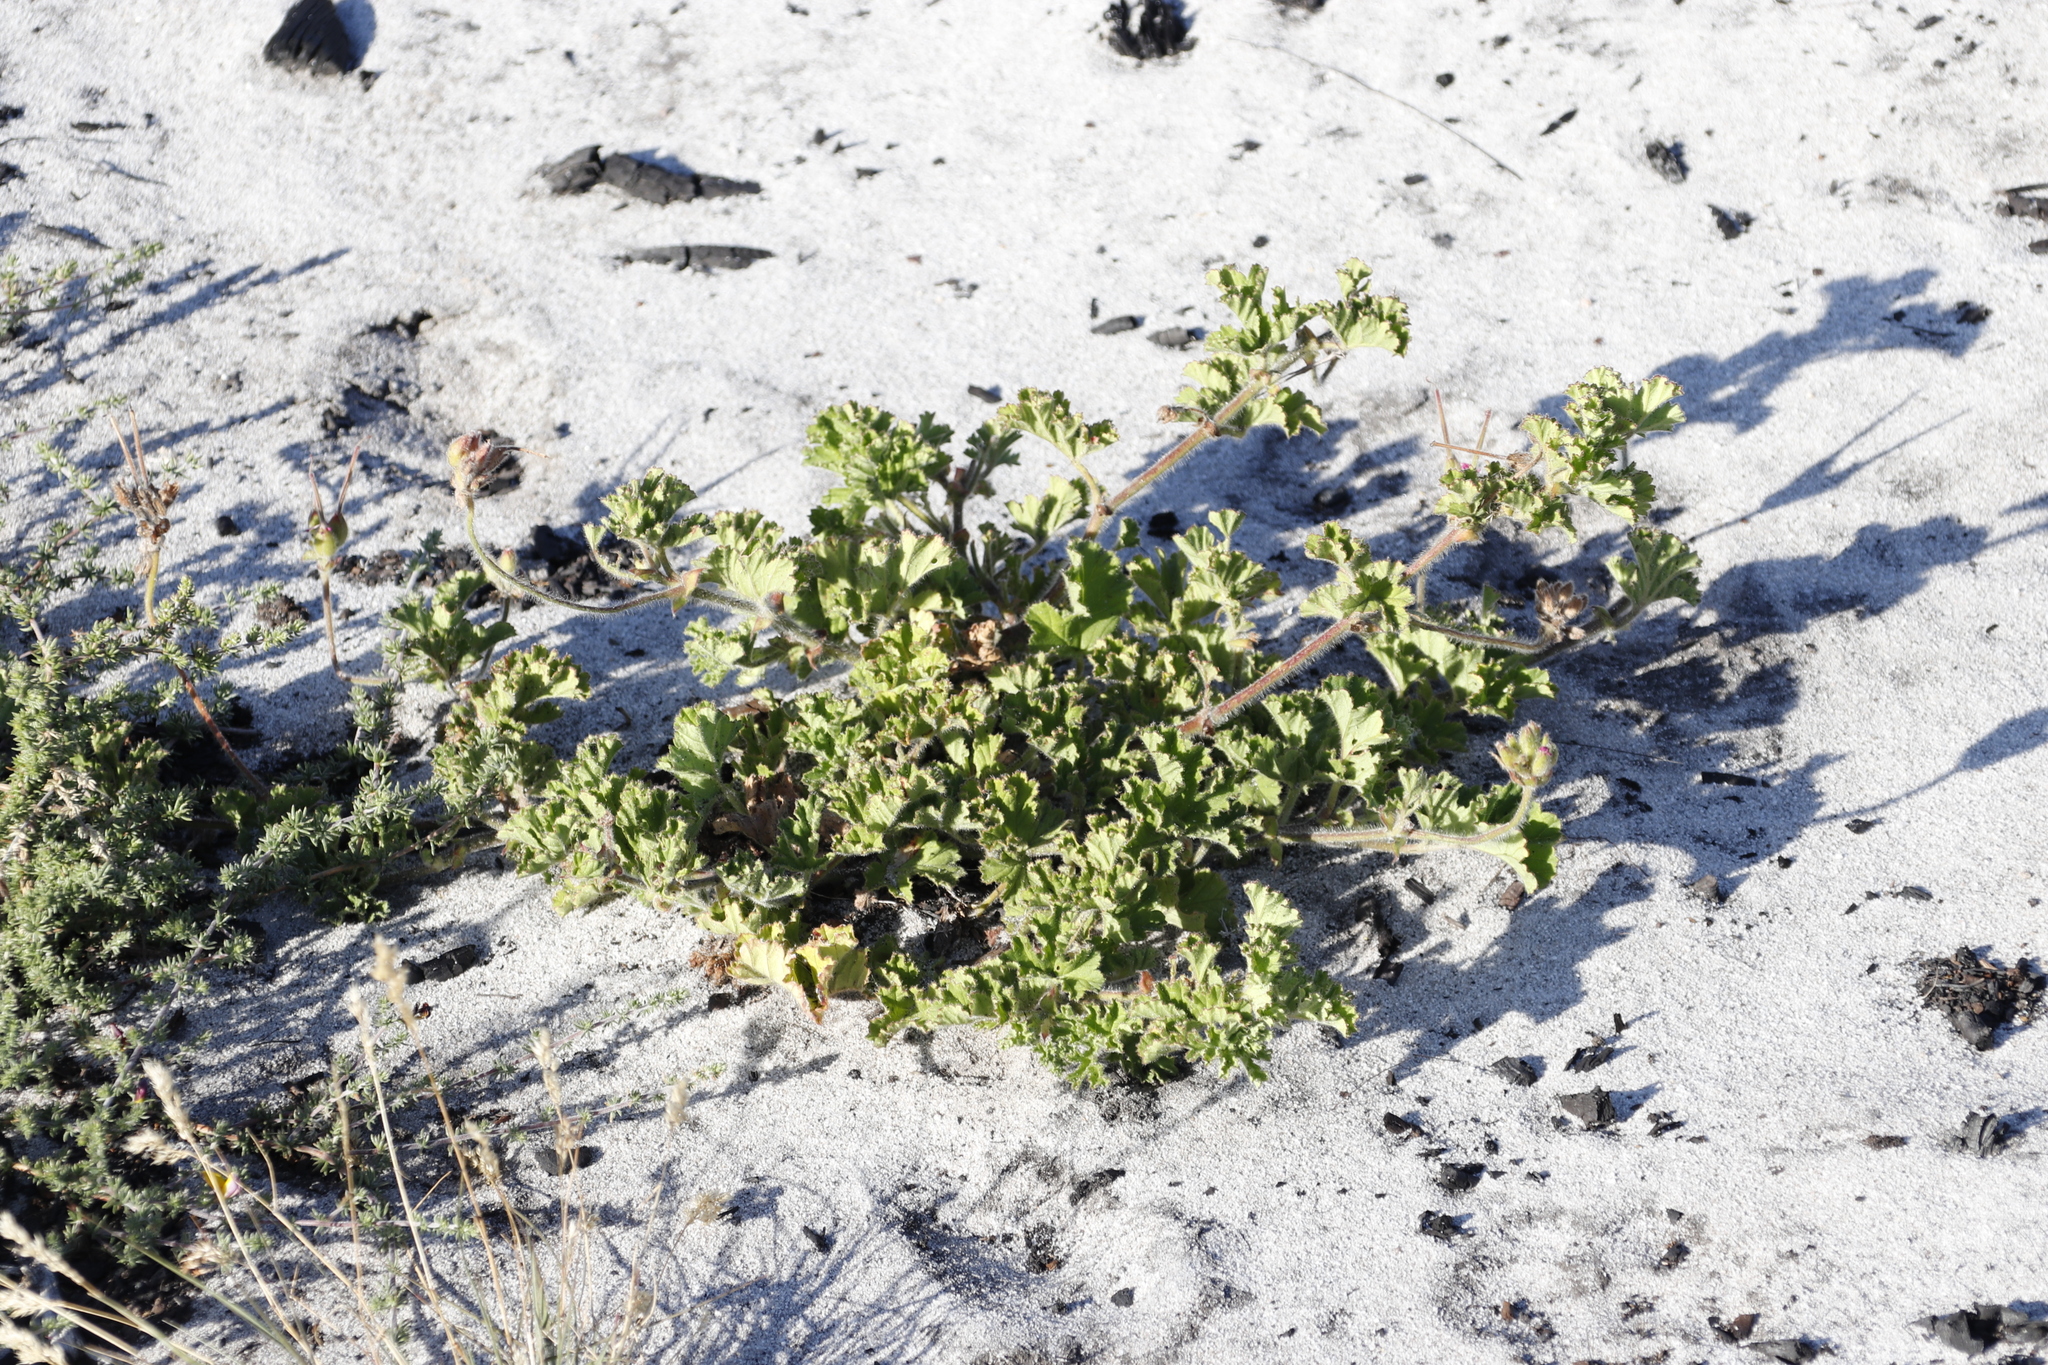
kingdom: Plantae
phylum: Tracheophyta
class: Magnoliopsida
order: Geraniales
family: Geraniaceae
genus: Pelargonium
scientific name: Pelargonium capitatum
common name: Rose scented geranium
